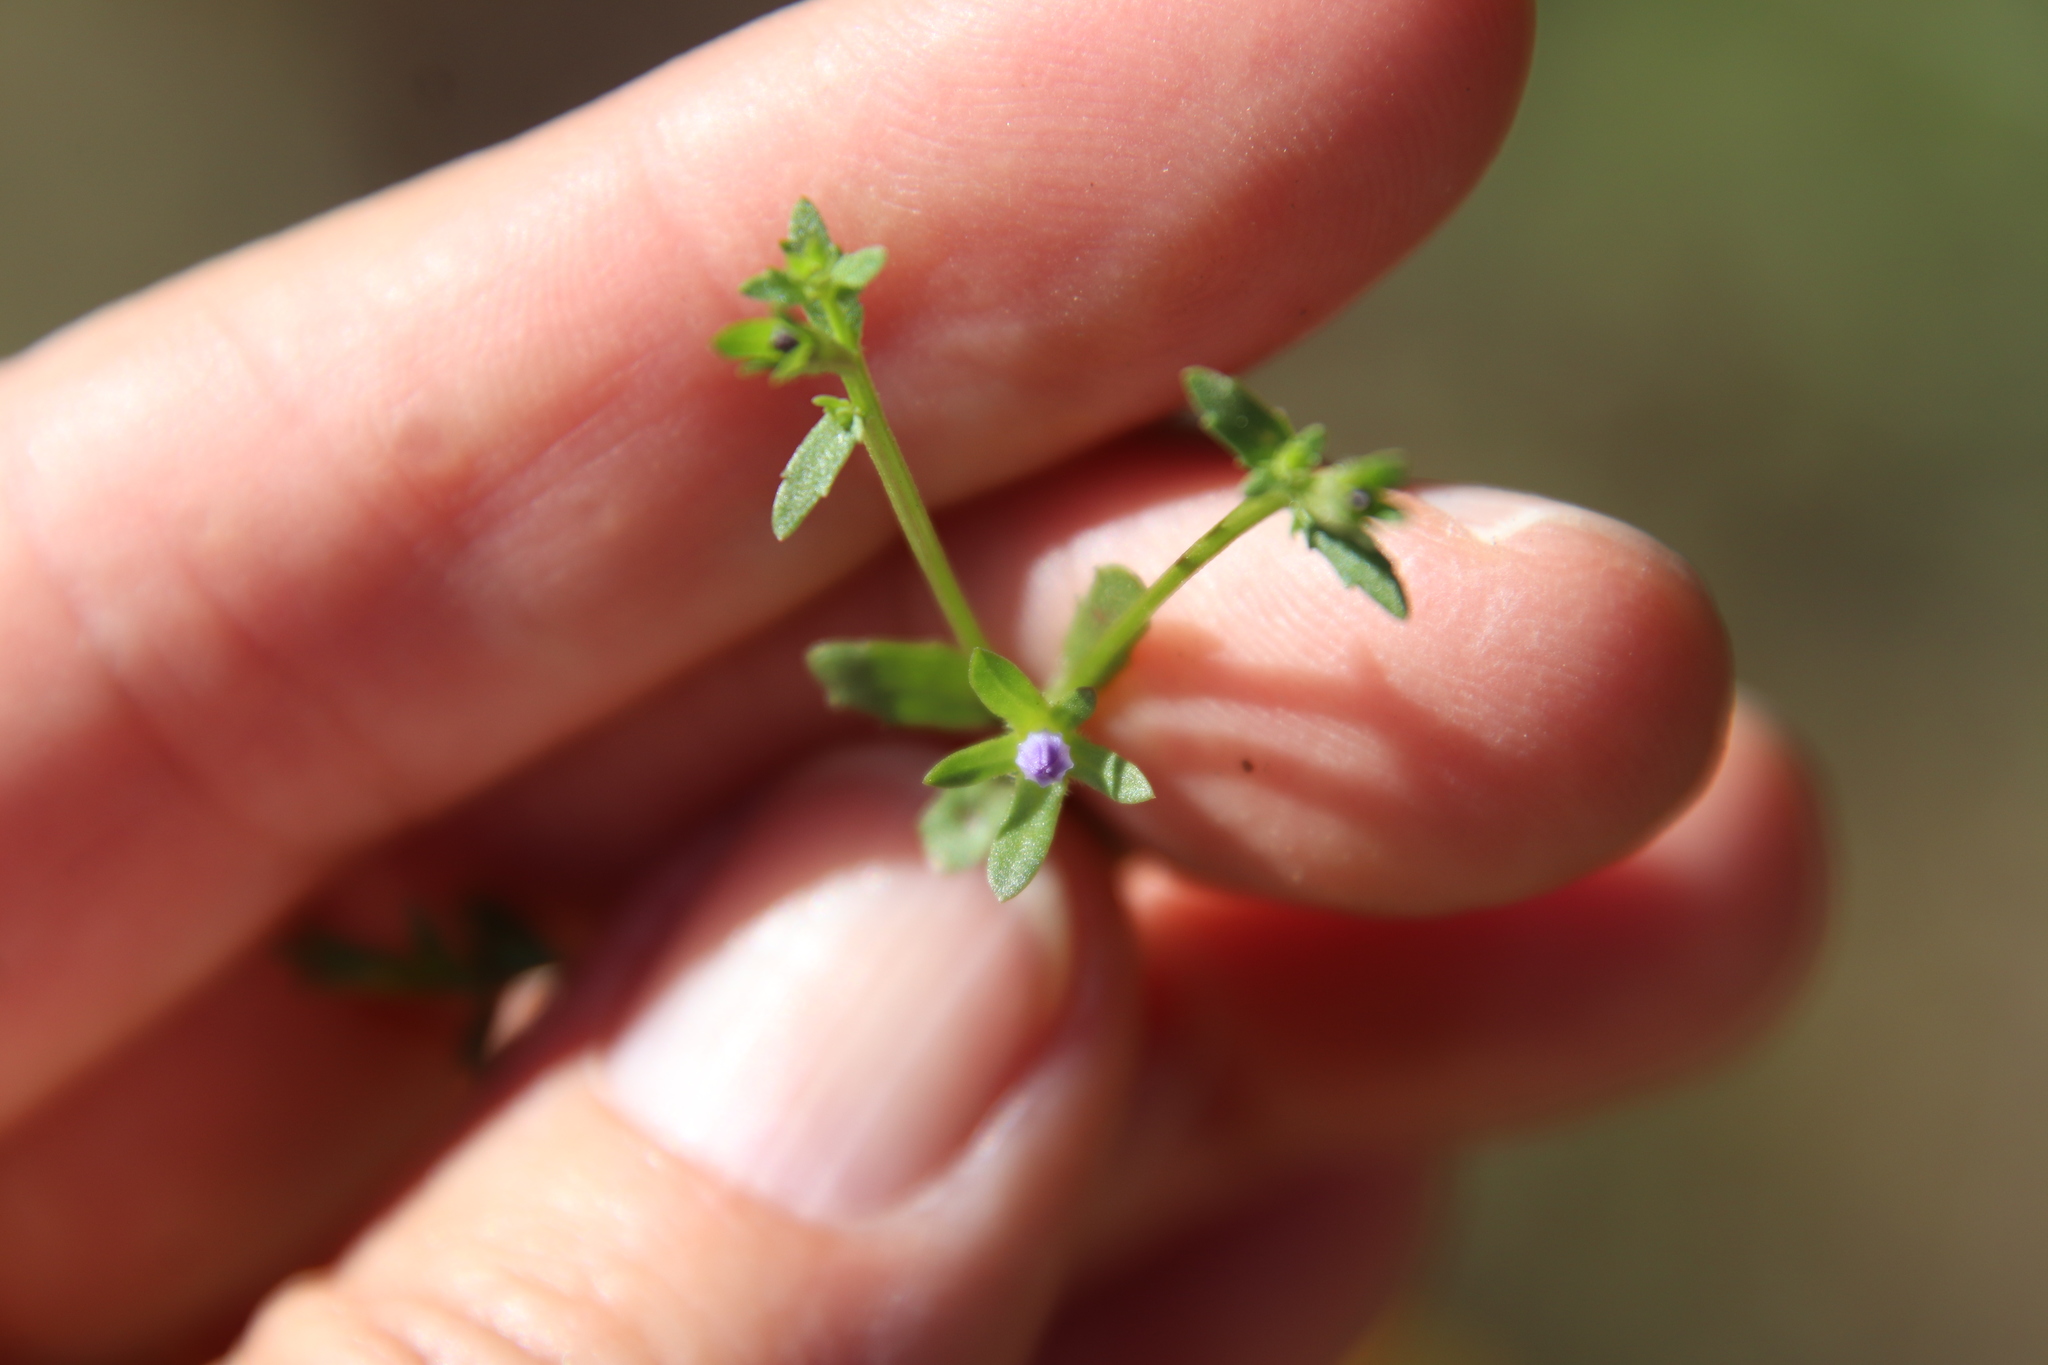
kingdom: Plantae
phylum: Tracheophyta
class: Magnoliopsida
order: Asterales
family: Campanulaceae
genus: Githopsis
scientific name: Githopsis diffusa
